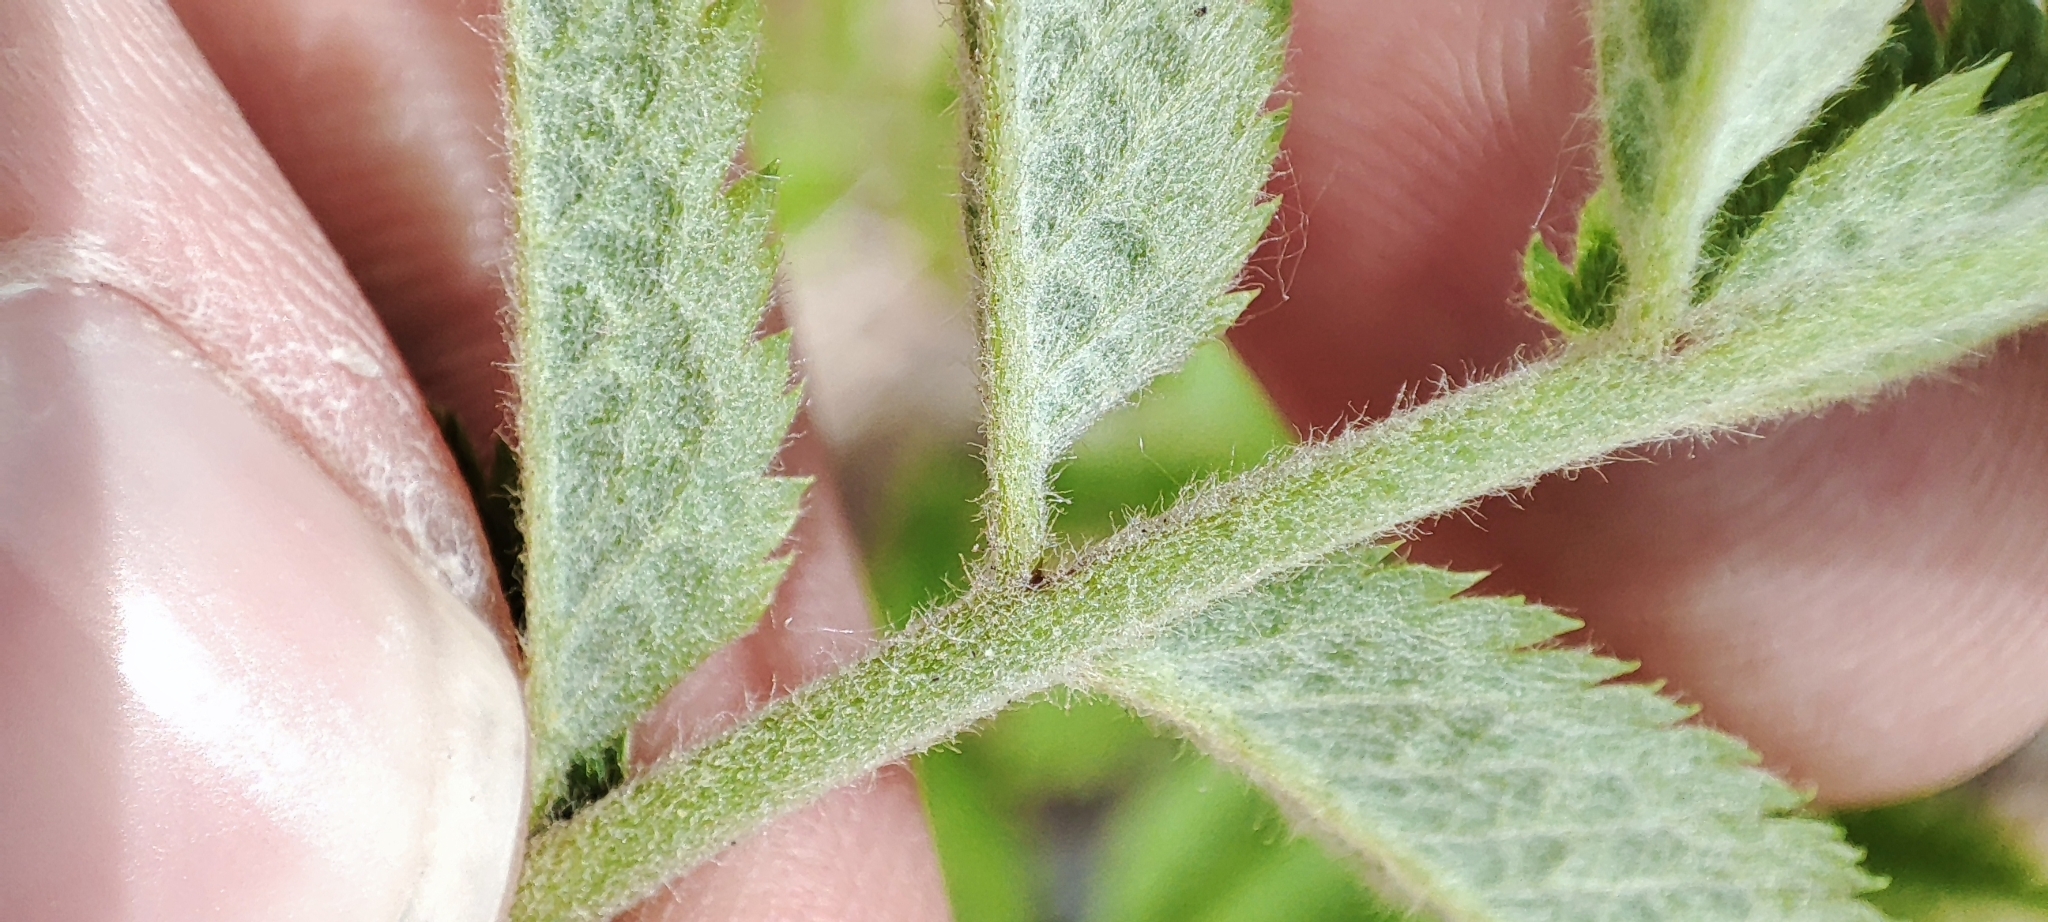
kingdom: Plantae
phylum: Tracheophyta
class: Magnoliopsida
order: Rosales
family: Rosaceae
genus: Sorbus
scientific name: Sorbus aucuparia
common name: Rowan
